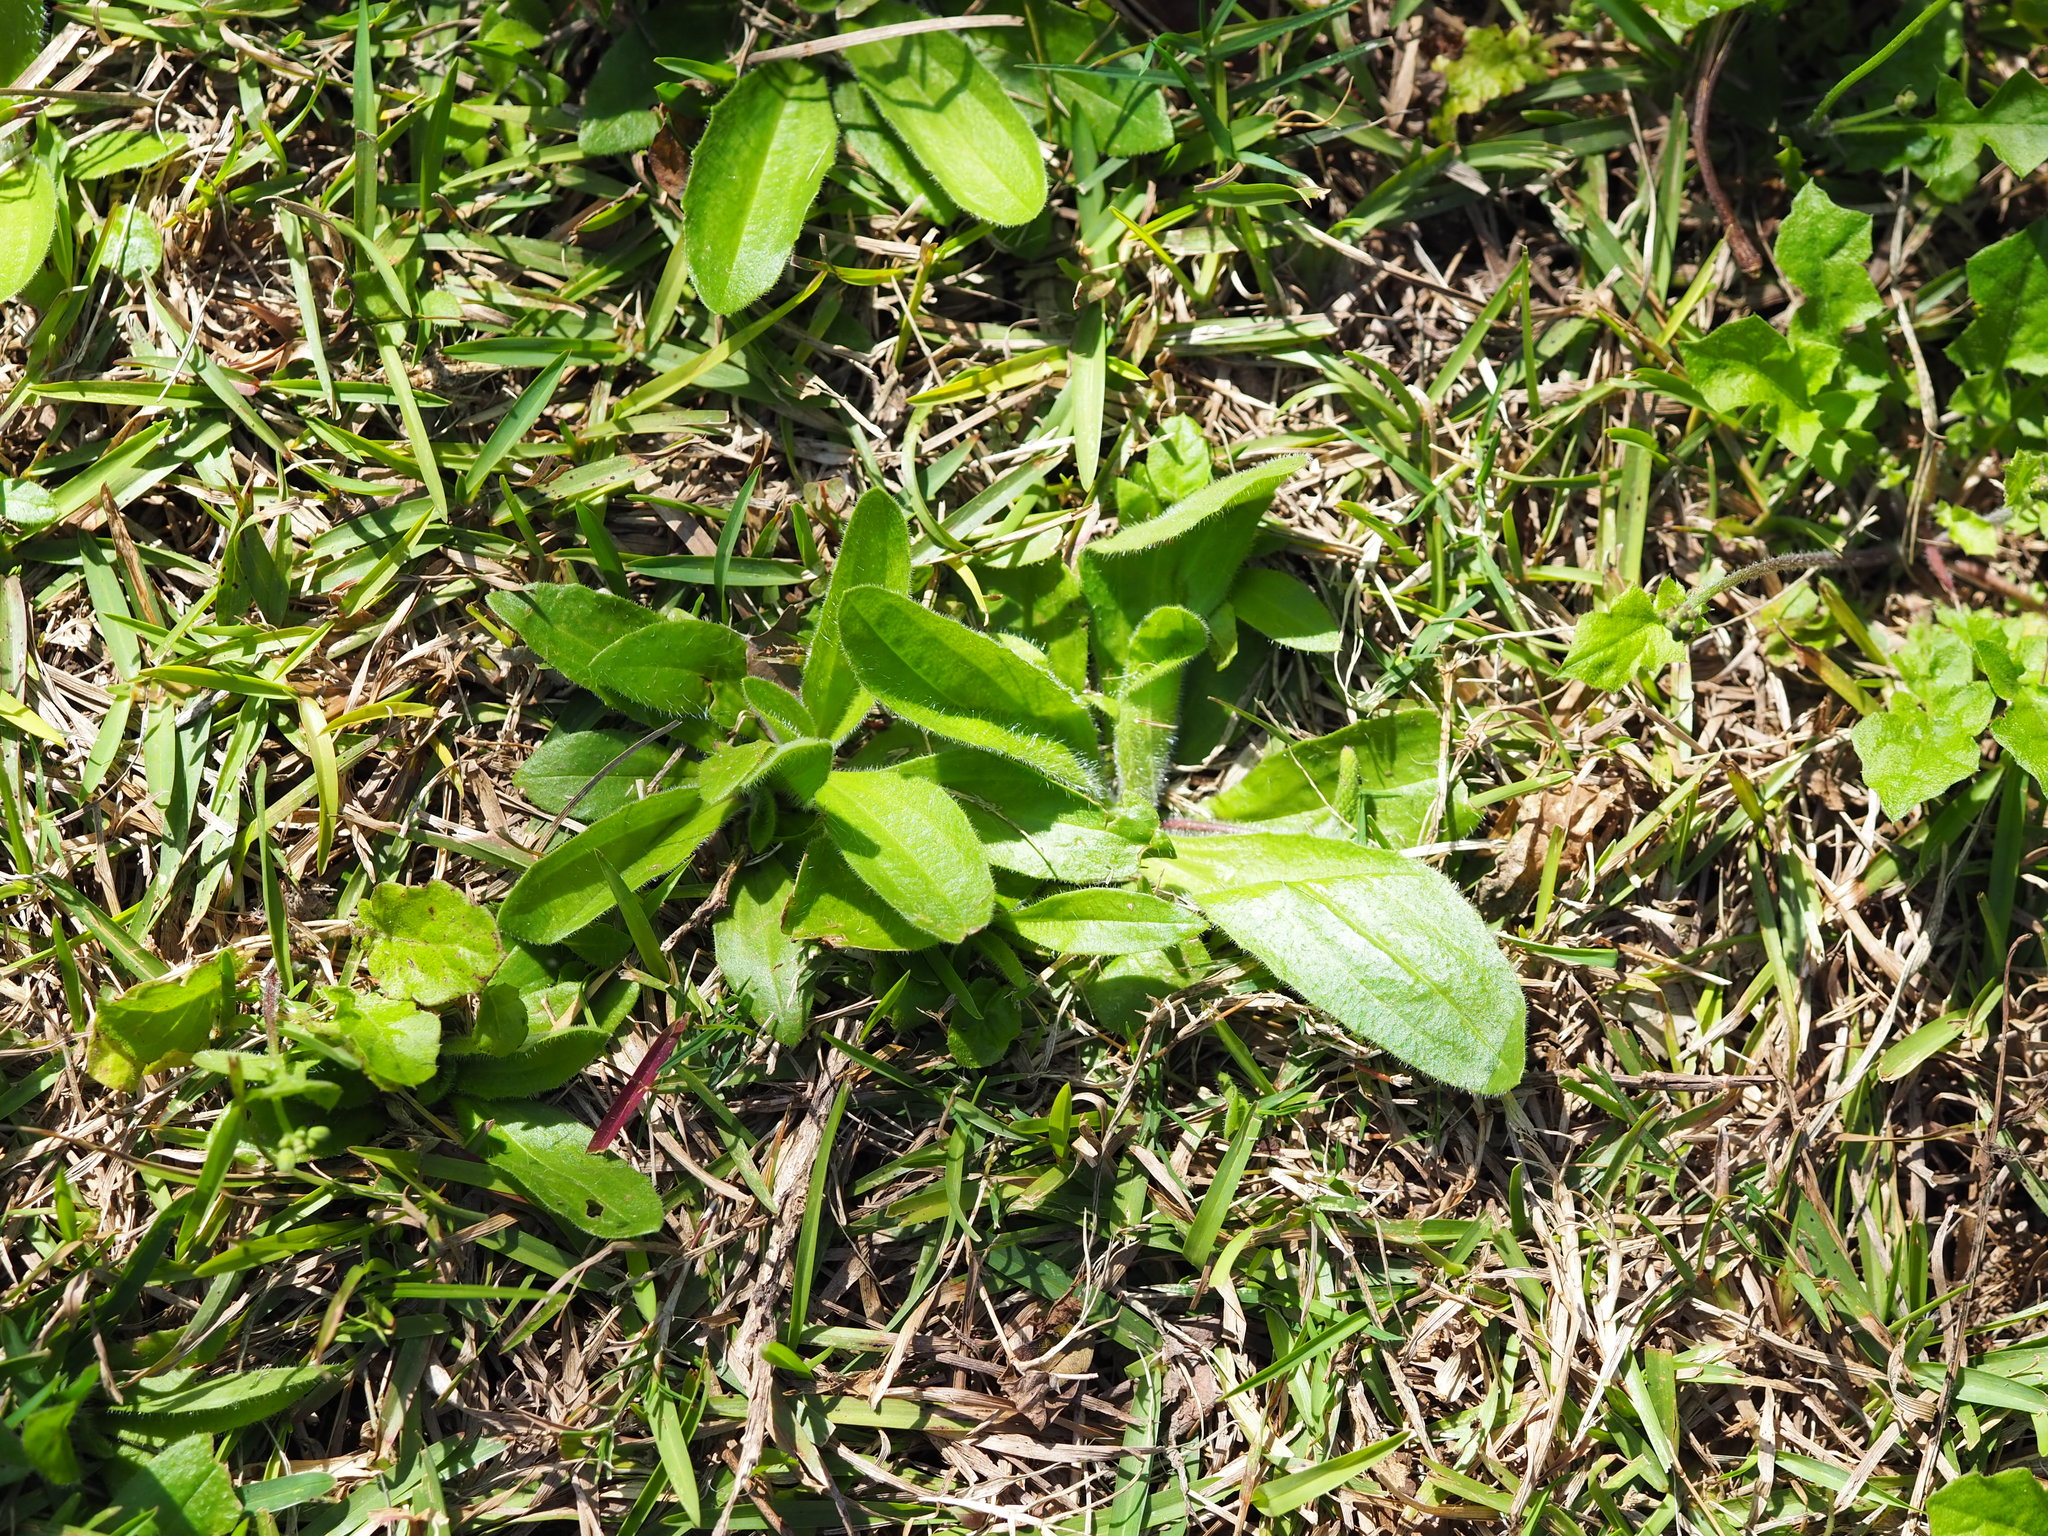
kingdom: Plantae
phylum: Tracheophyta
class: Magnoliopsida
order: Lamiales
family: Plantaginaceae
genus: Plantago
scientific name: Plantago virginica
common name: Hoary plantain
